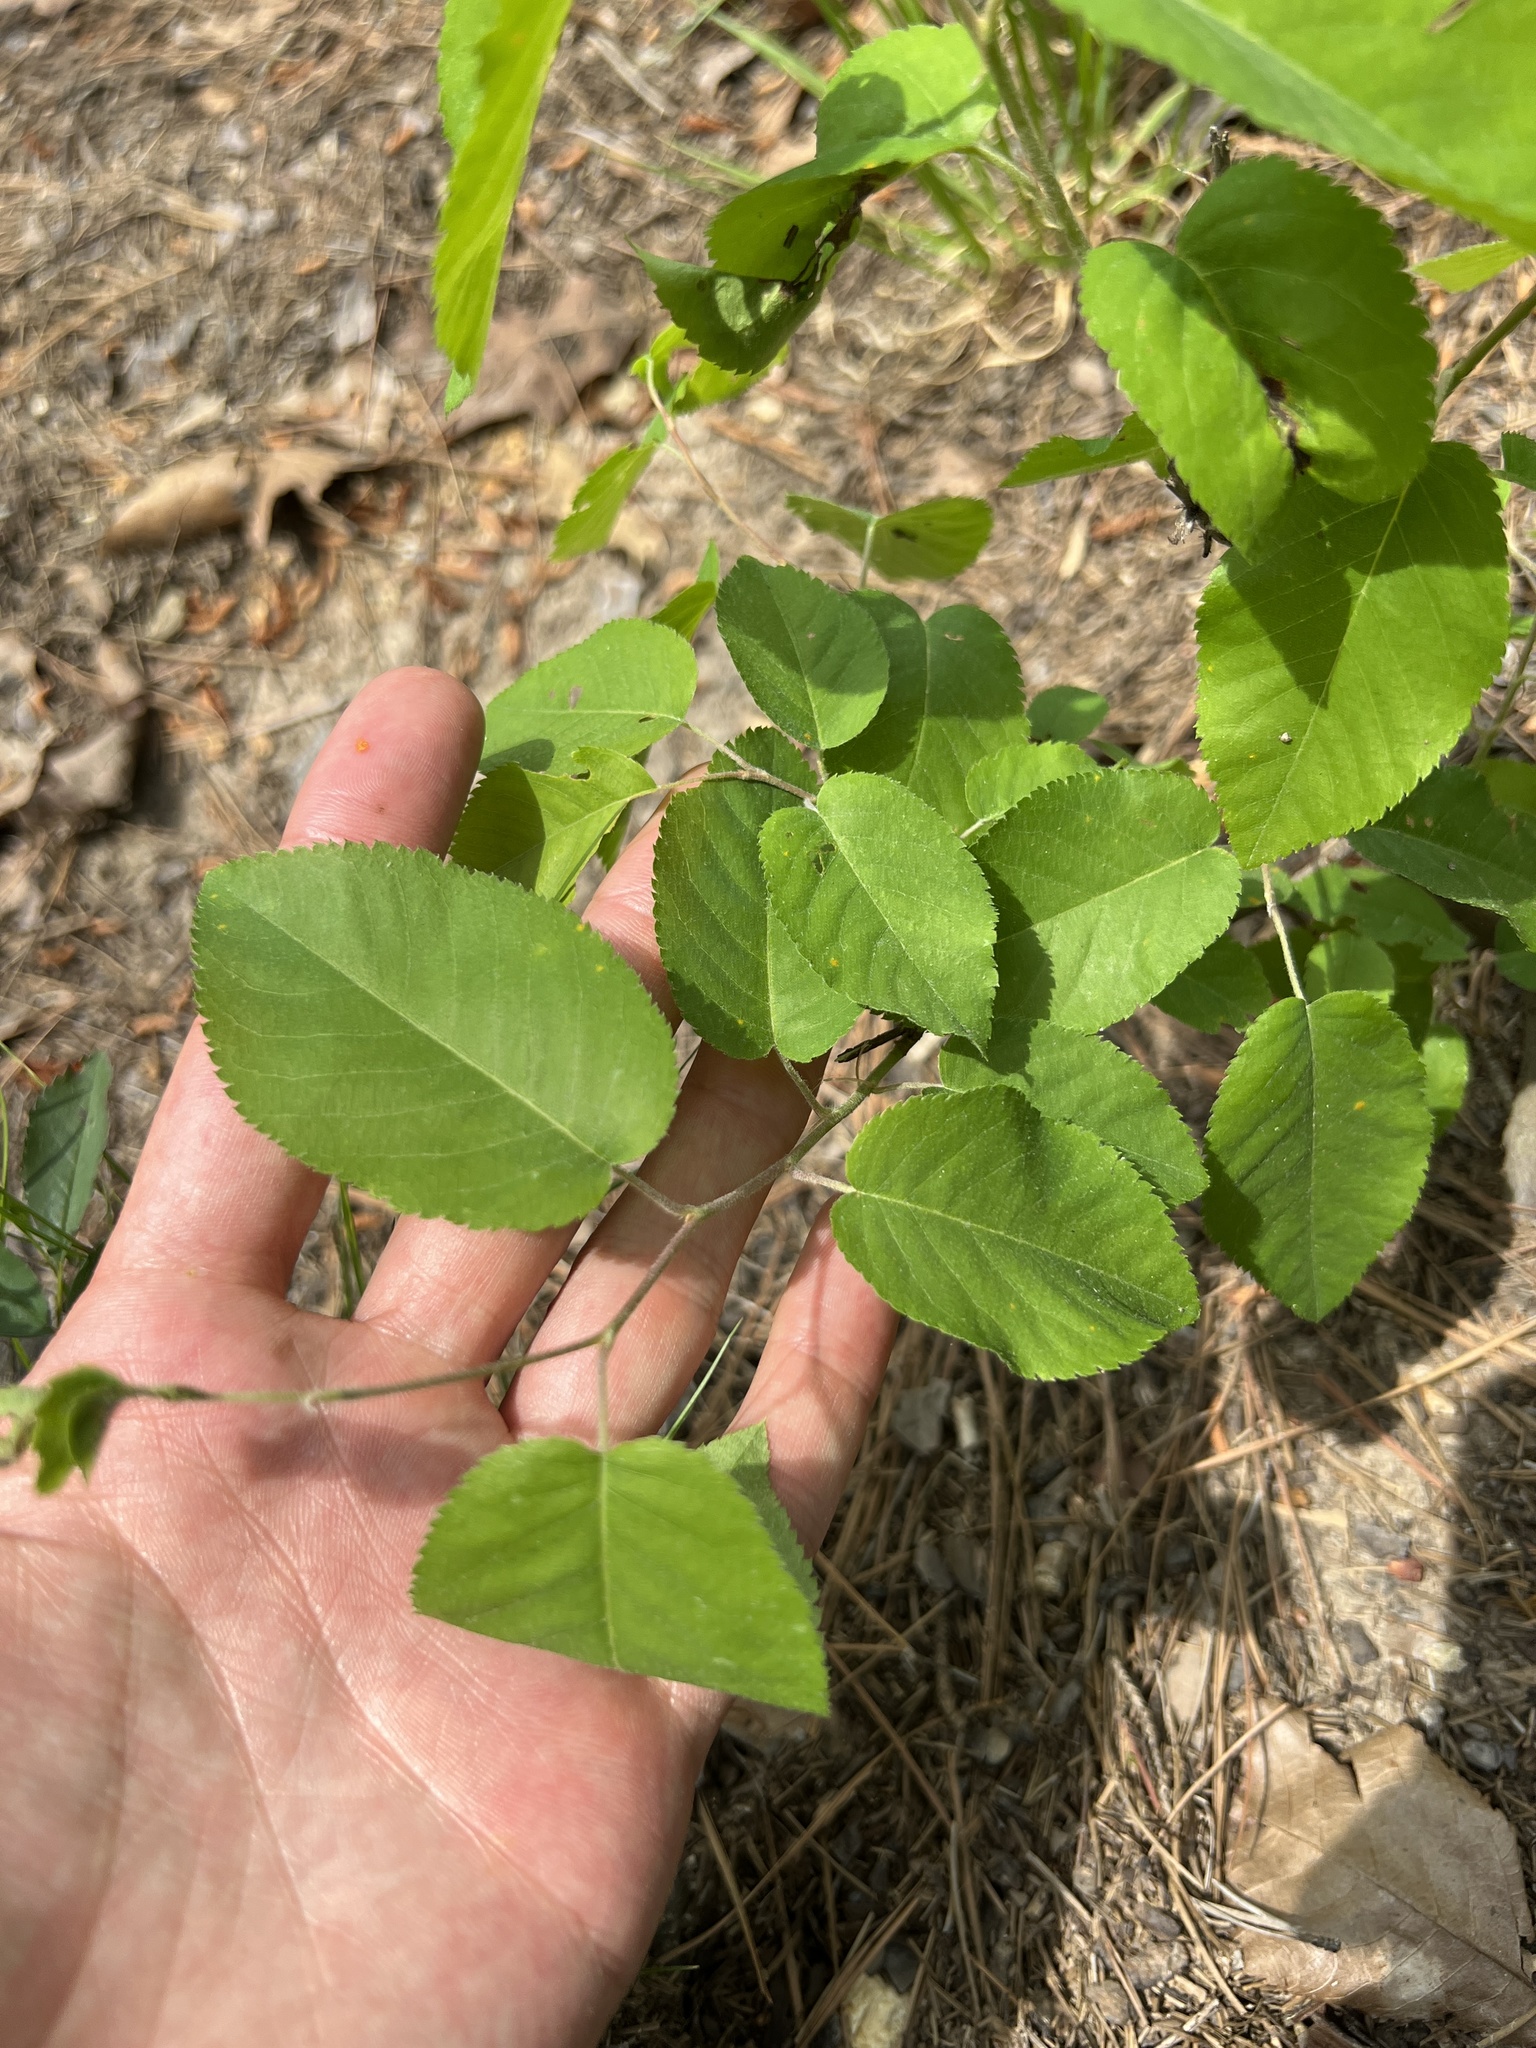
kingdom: Plantae
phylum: Tracheophyta
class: Magnoliopsida
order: Rosales
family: Rosaceae
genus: Amelanchier
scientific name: Amelanchier arborea
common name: Downy serviceberry
